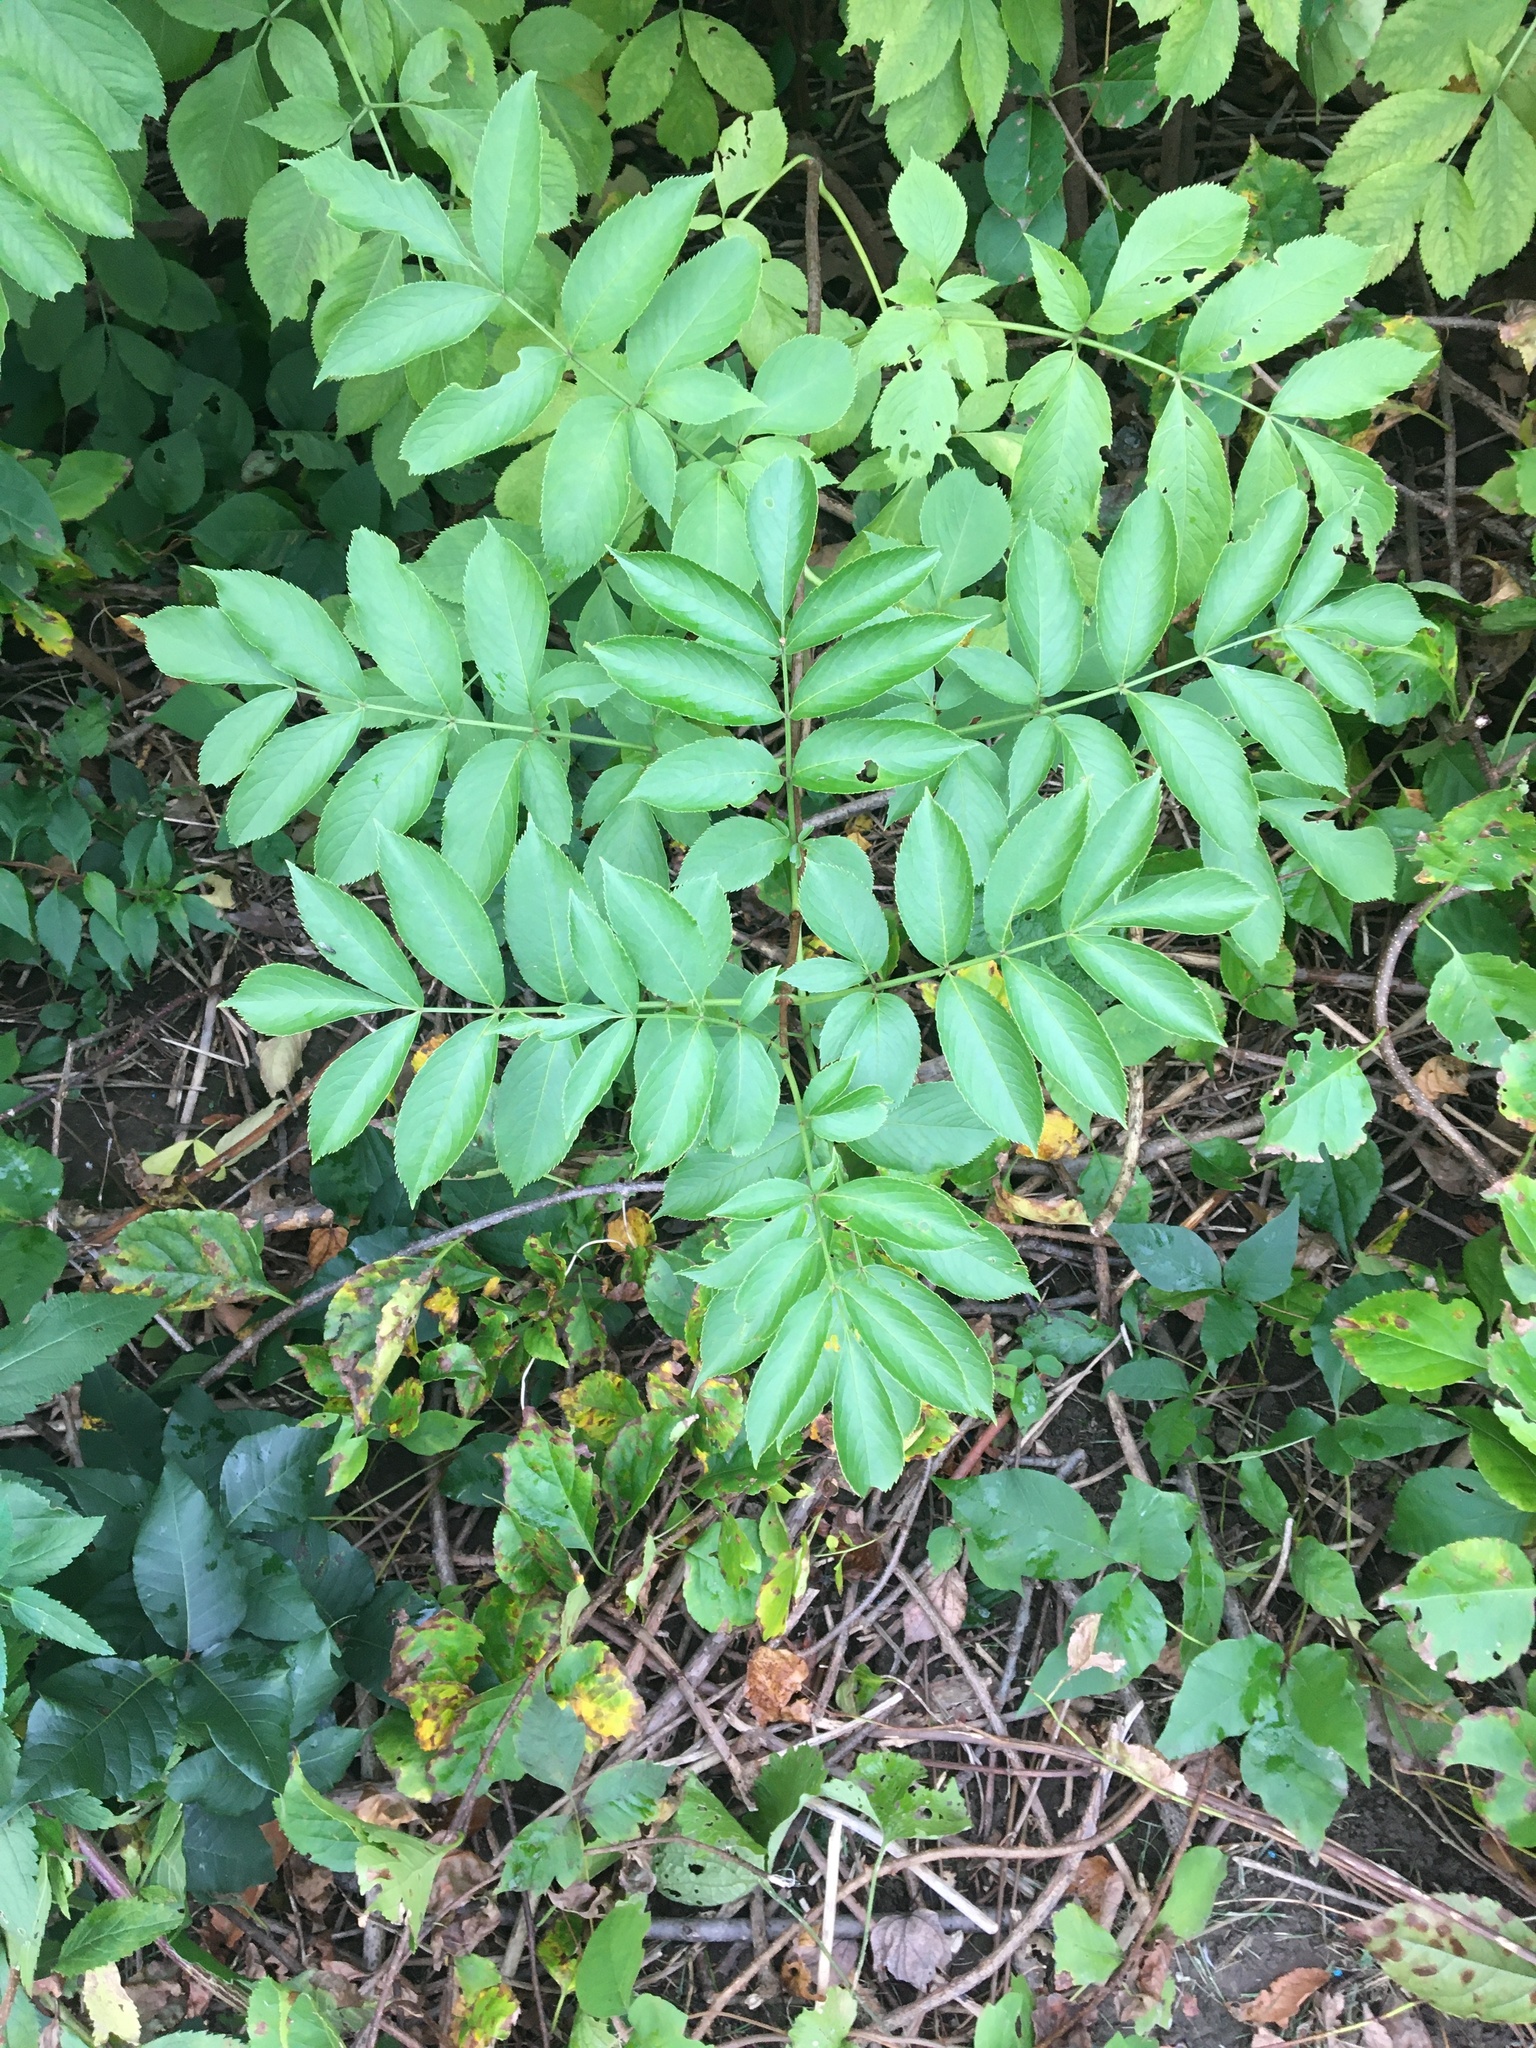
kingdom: Plantae
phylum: Tracheophyta
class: Magnoliopsida
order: Dipsacales
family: Viburnaceae
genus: Sambucus
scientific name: Sambucus canadensis
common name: American elder
